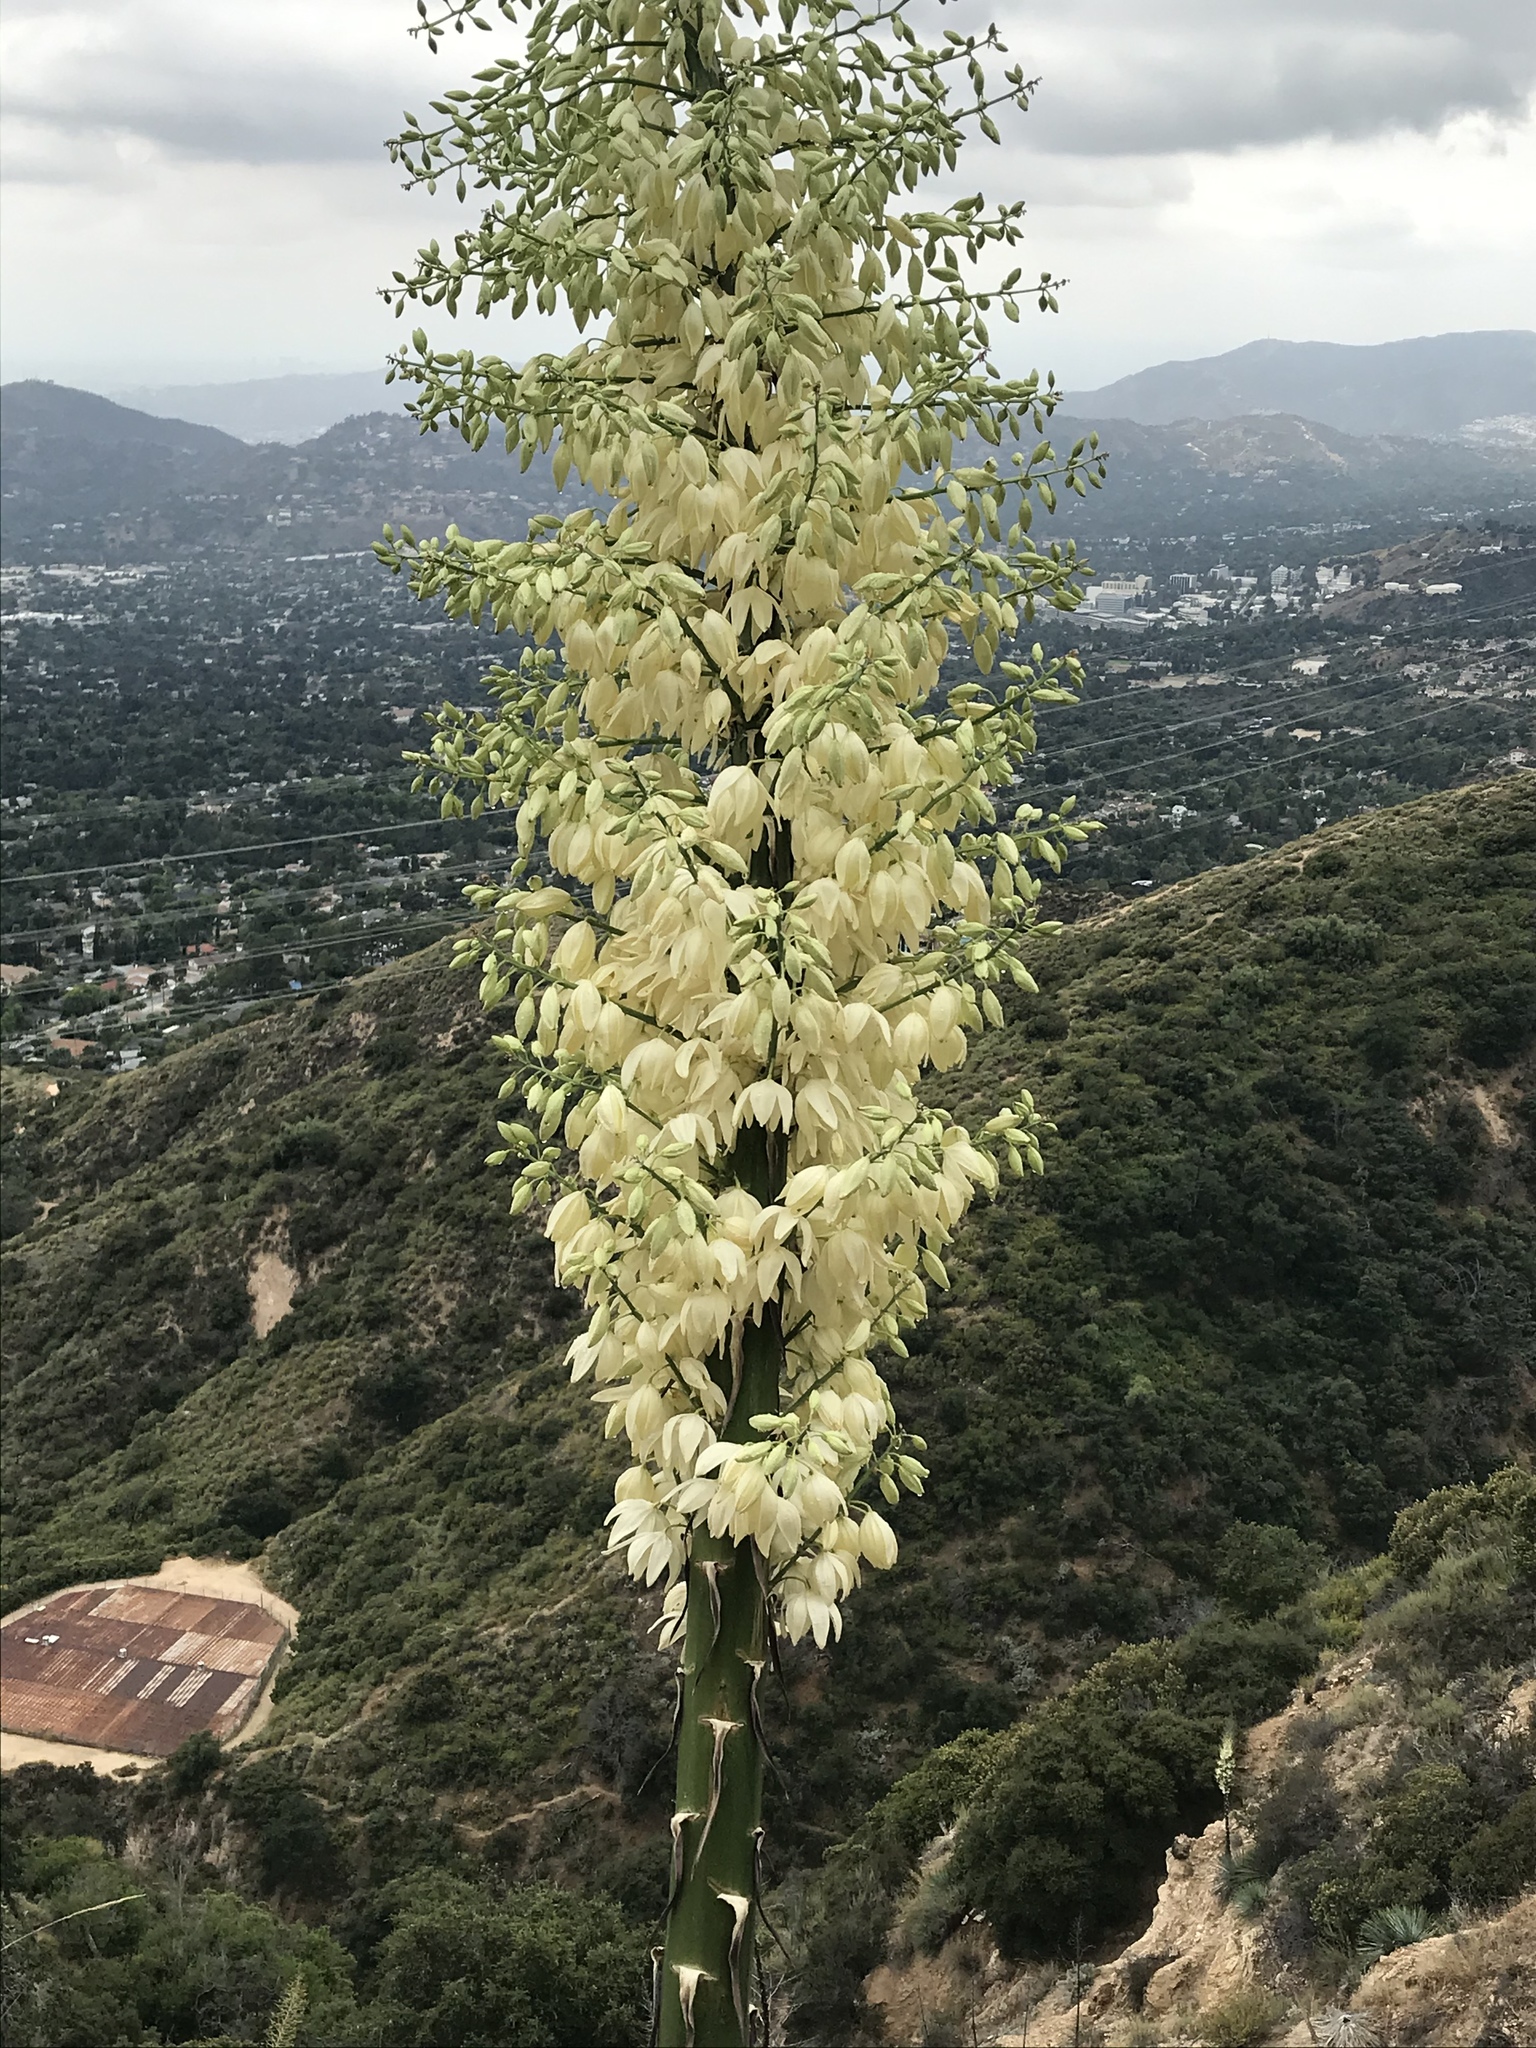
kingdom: Plantae
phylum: Tracheophyta
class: Liliopsida
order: Asparagales
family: Asparagaceae
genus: Hesperoyucca
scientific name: Hesperoyucca whipplei
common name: Our lord's-candle
